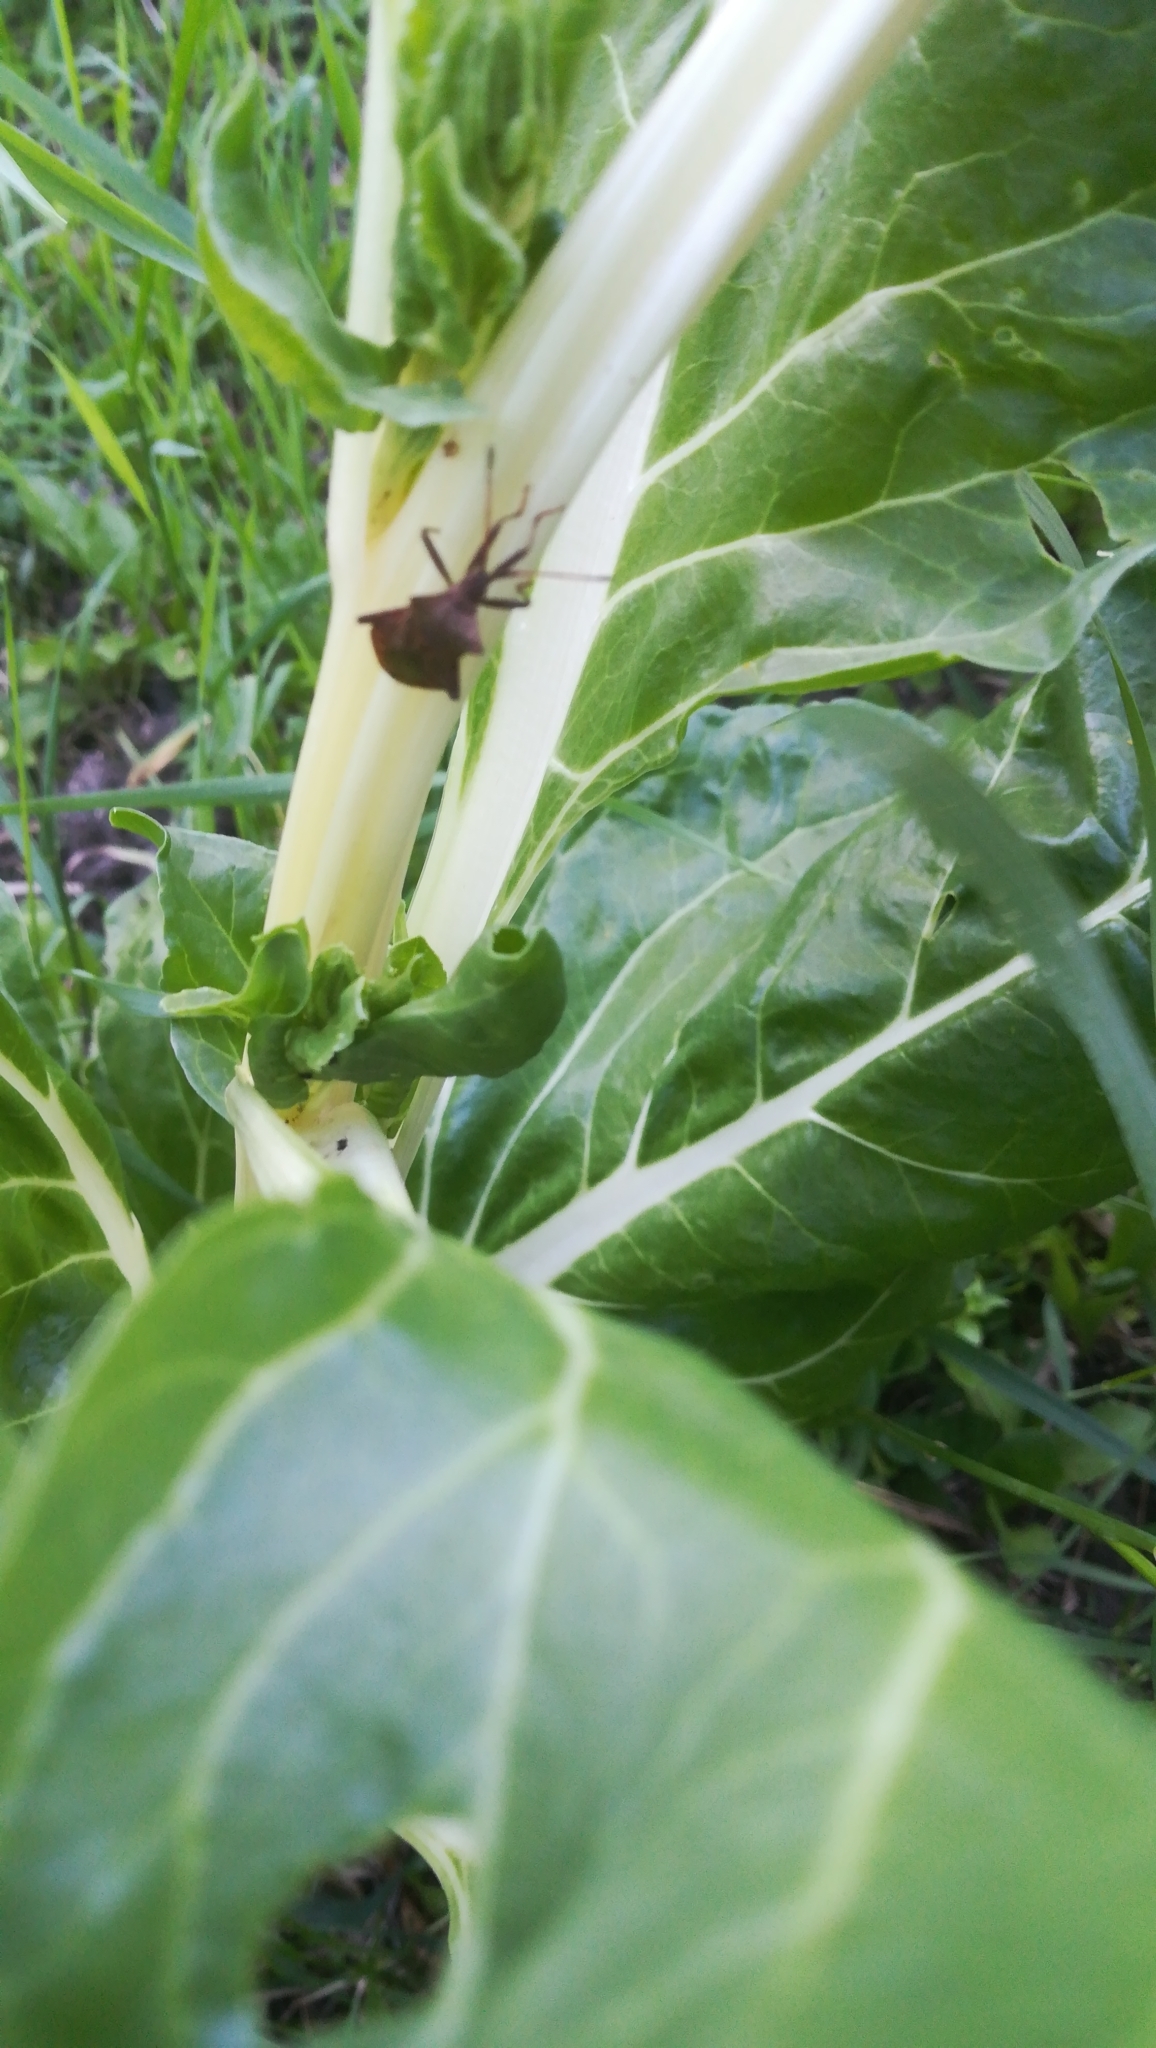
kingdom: Animalia
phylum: Arthropoda
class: Insecta
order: Hemiptera
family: Coreidae
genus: Coreus
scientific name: Coreus marginatus
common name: Dock bug
